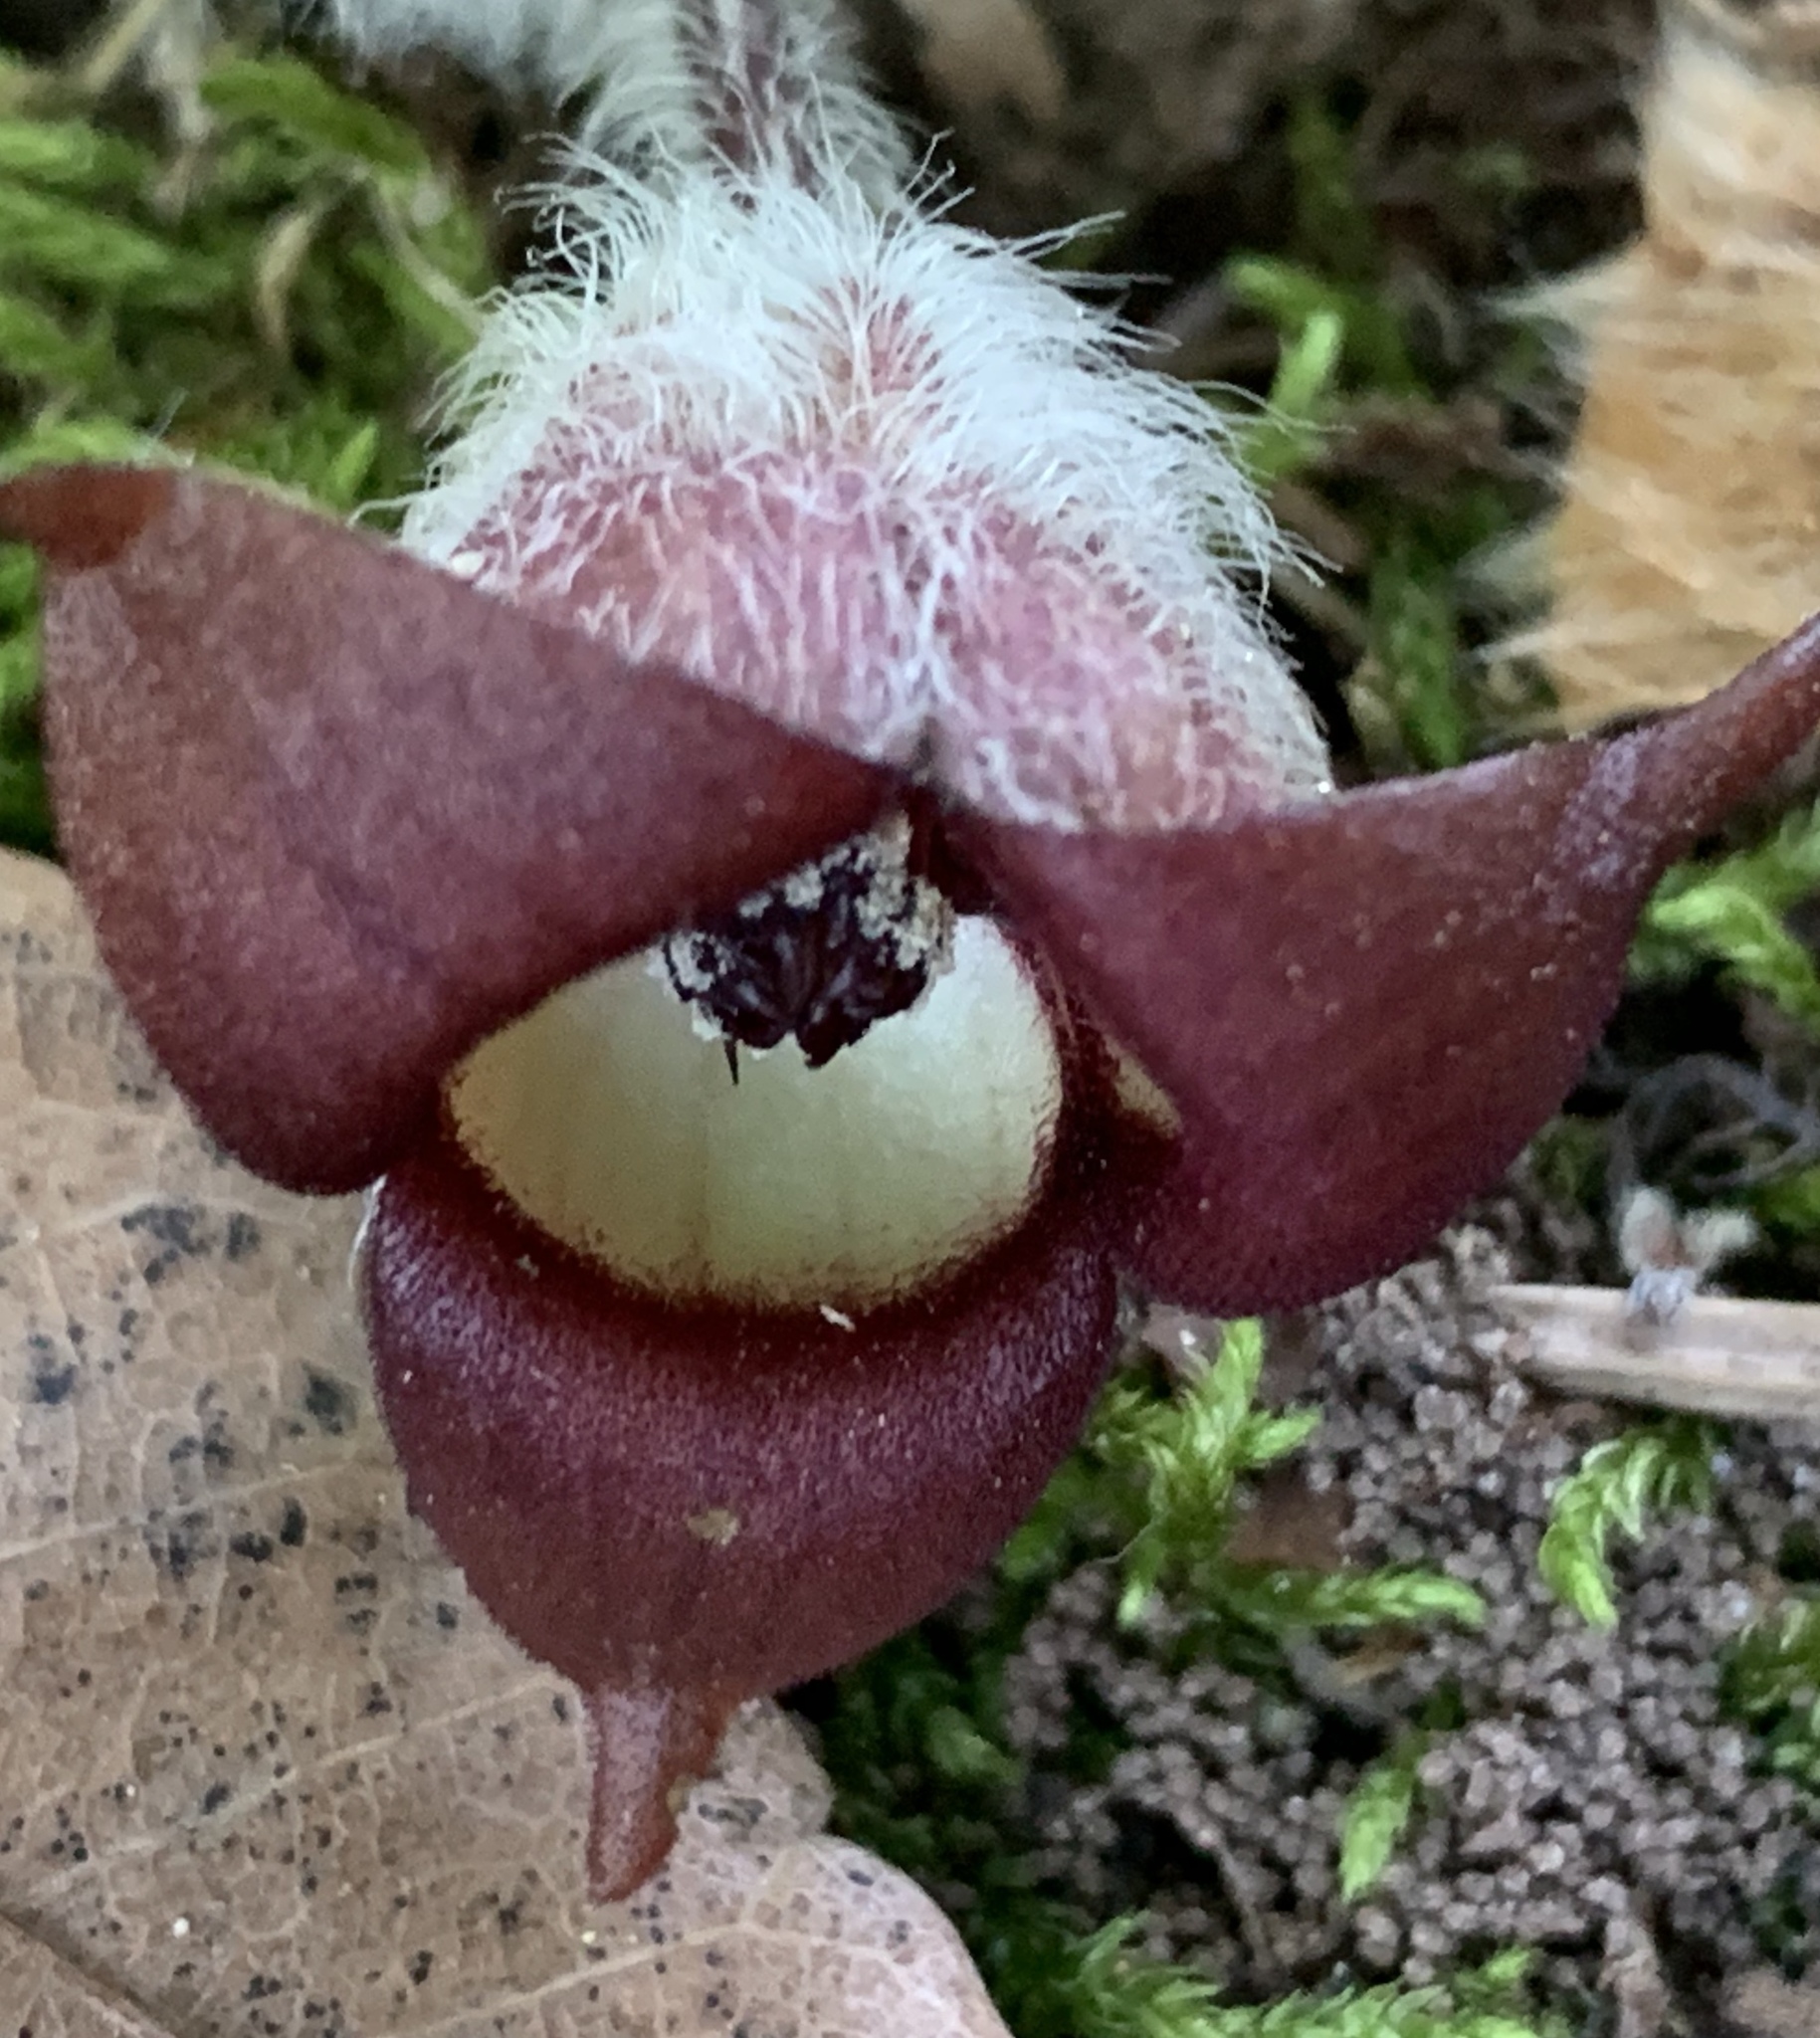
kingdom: Plantae
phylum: Tracheophyta
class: Magnoliopsida
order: Piperales
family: Aristolochiaceae
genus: Asarum
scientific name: Asarum canadense
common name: Wild ginger
